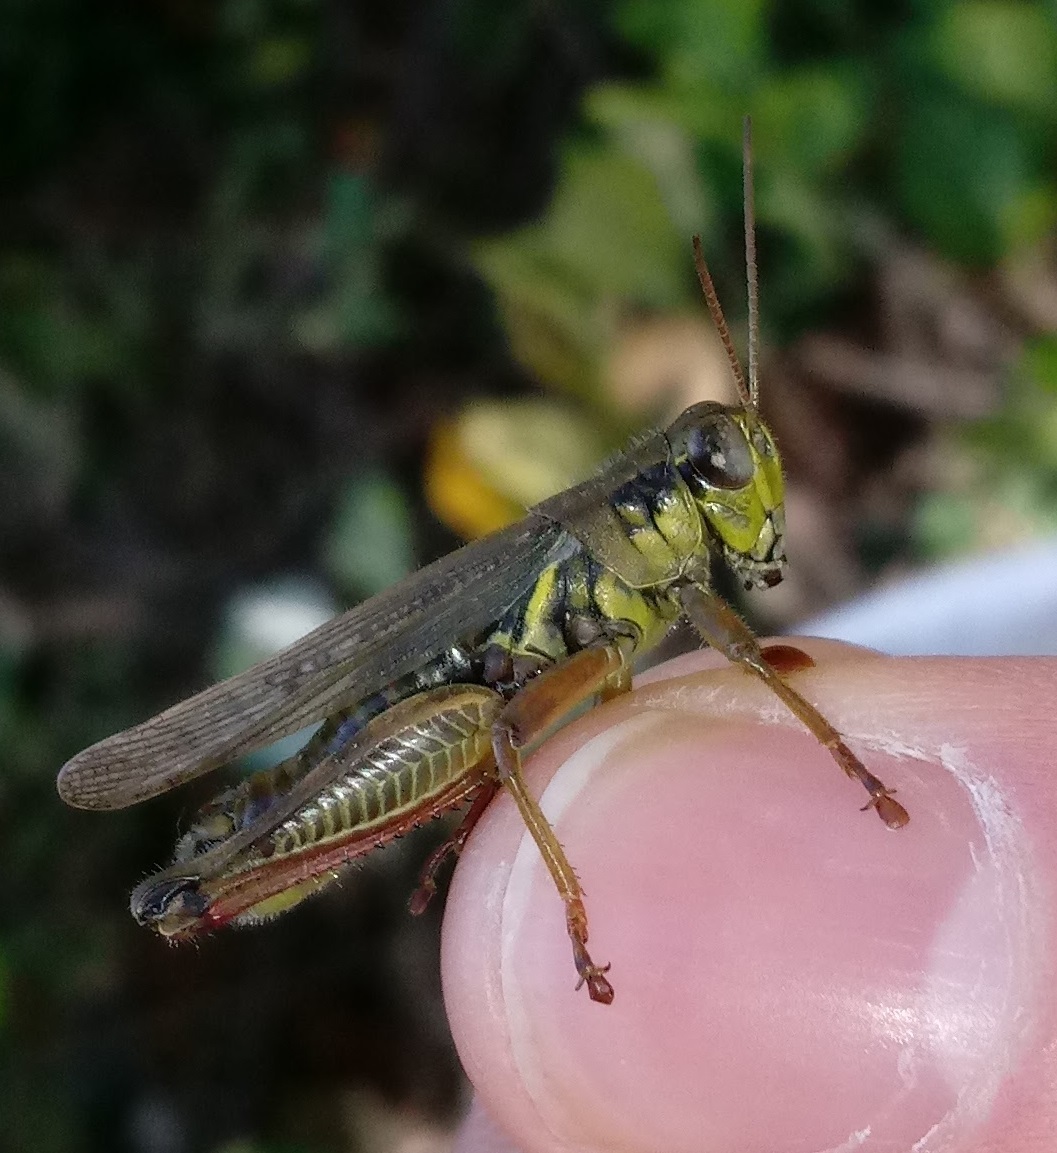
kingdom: Animalia
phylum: Arthropoda
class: Insecta
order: Orthoptera
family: Acrididae
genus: Melanoplus
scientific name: Melanoplus femurrubrum
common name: Red-legged grasshopper
